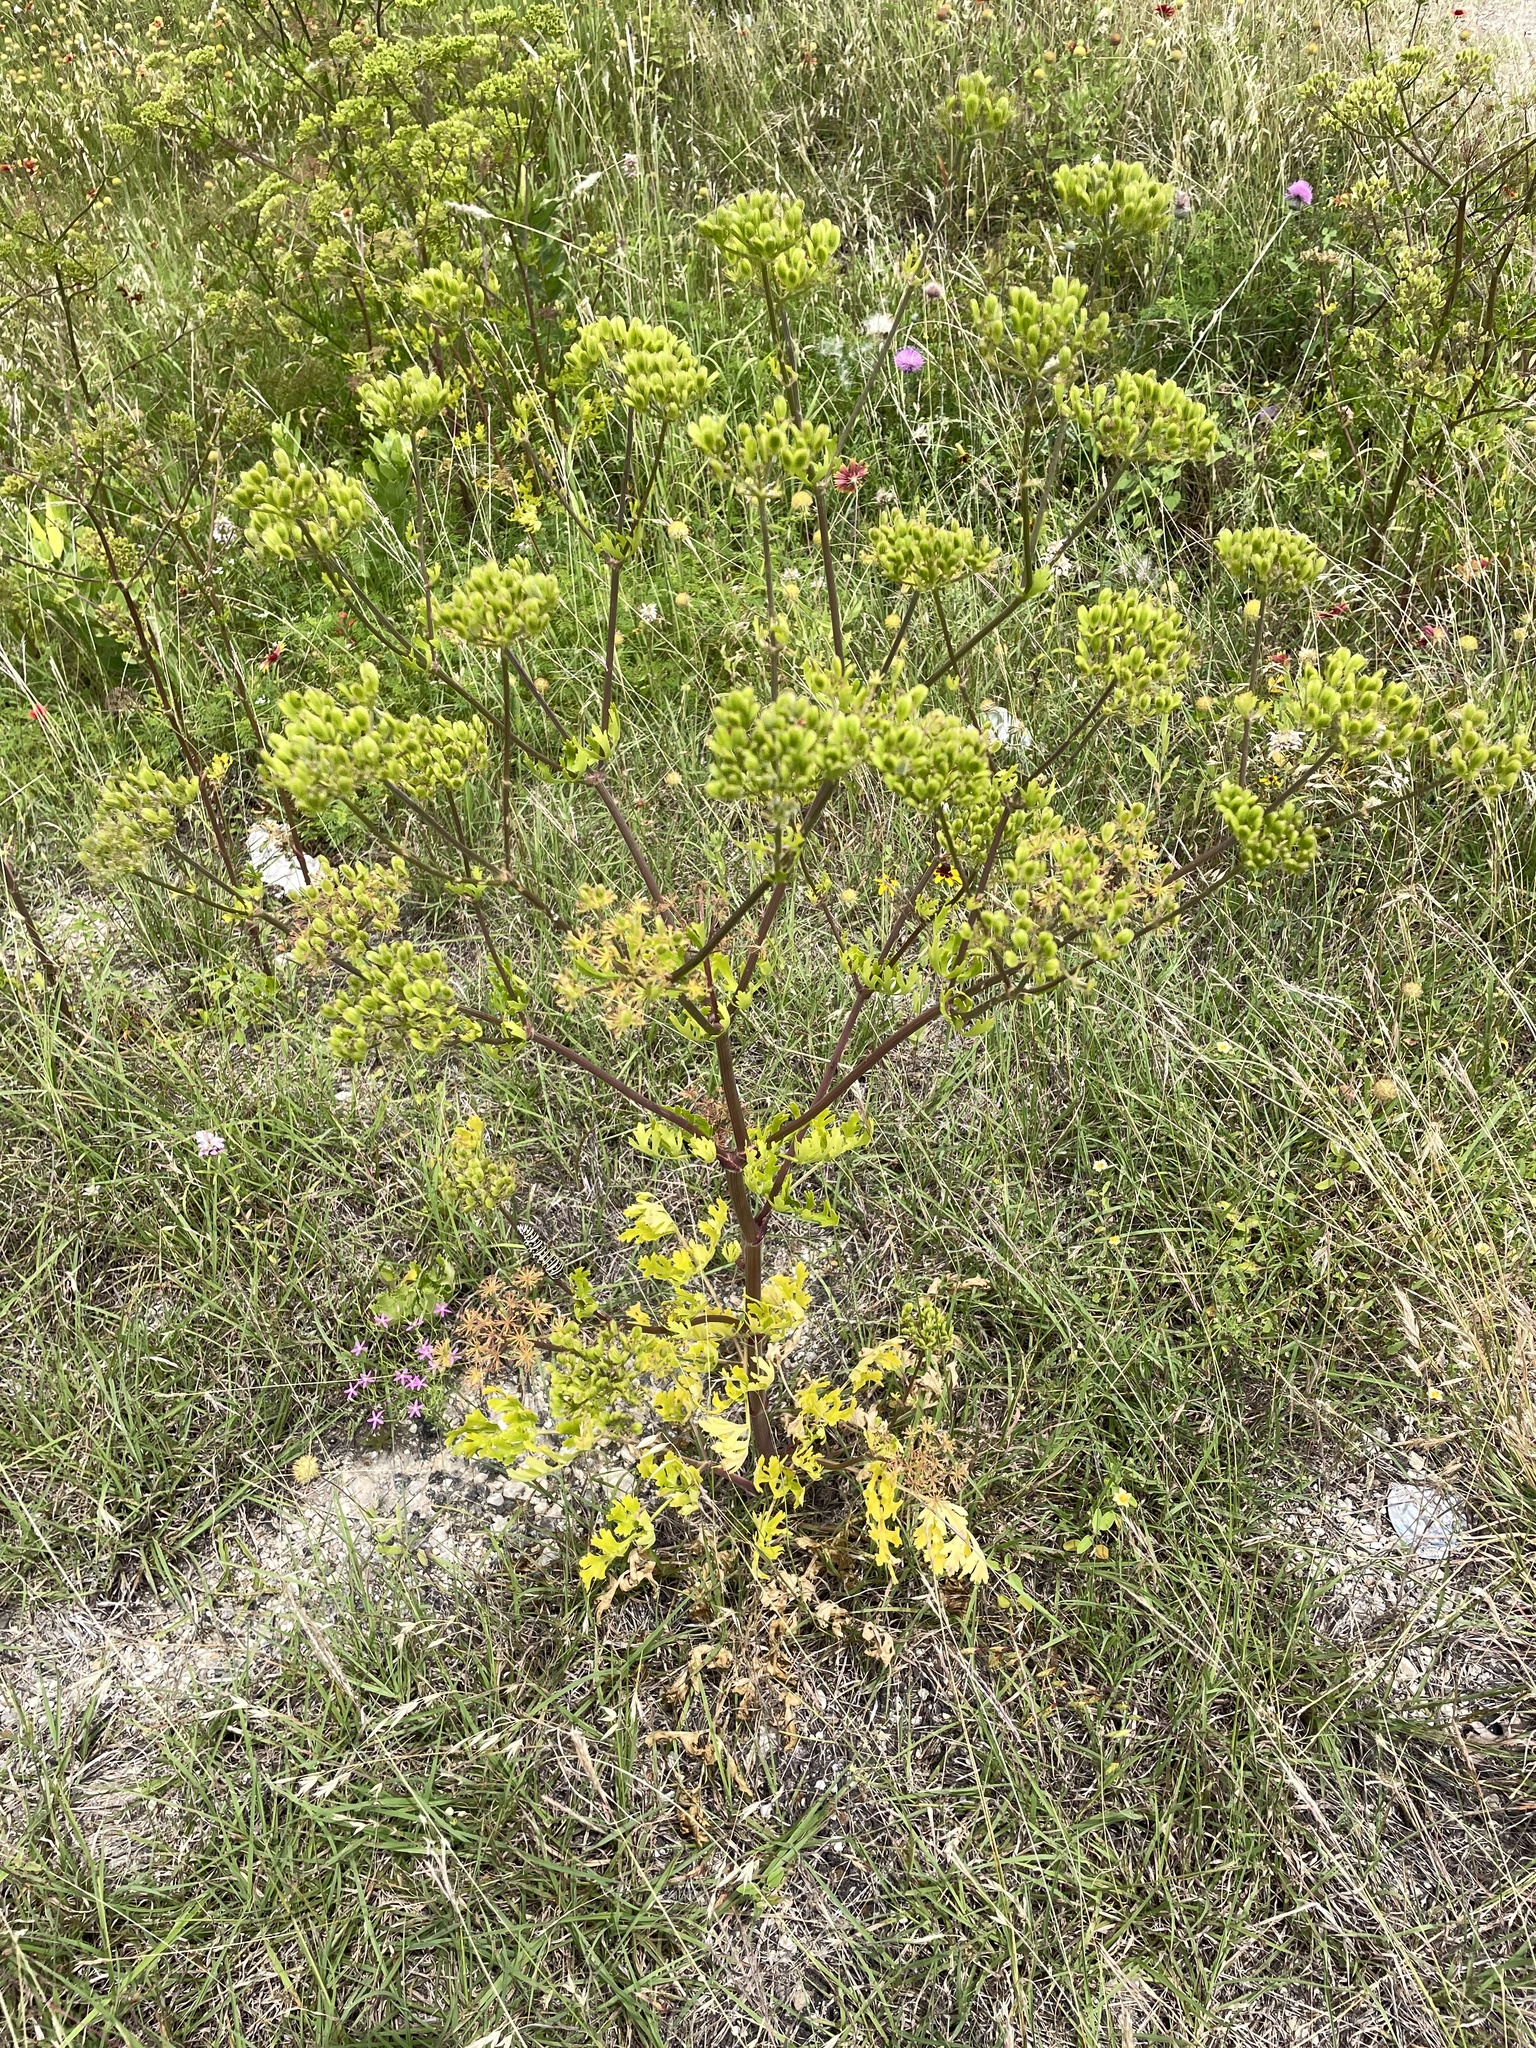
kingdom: Plantae
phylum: Tracheophyta
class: Magnoliopsida
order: Apiales
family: Apiaceae
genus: Polytaenia
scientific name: Polytaenia texana
